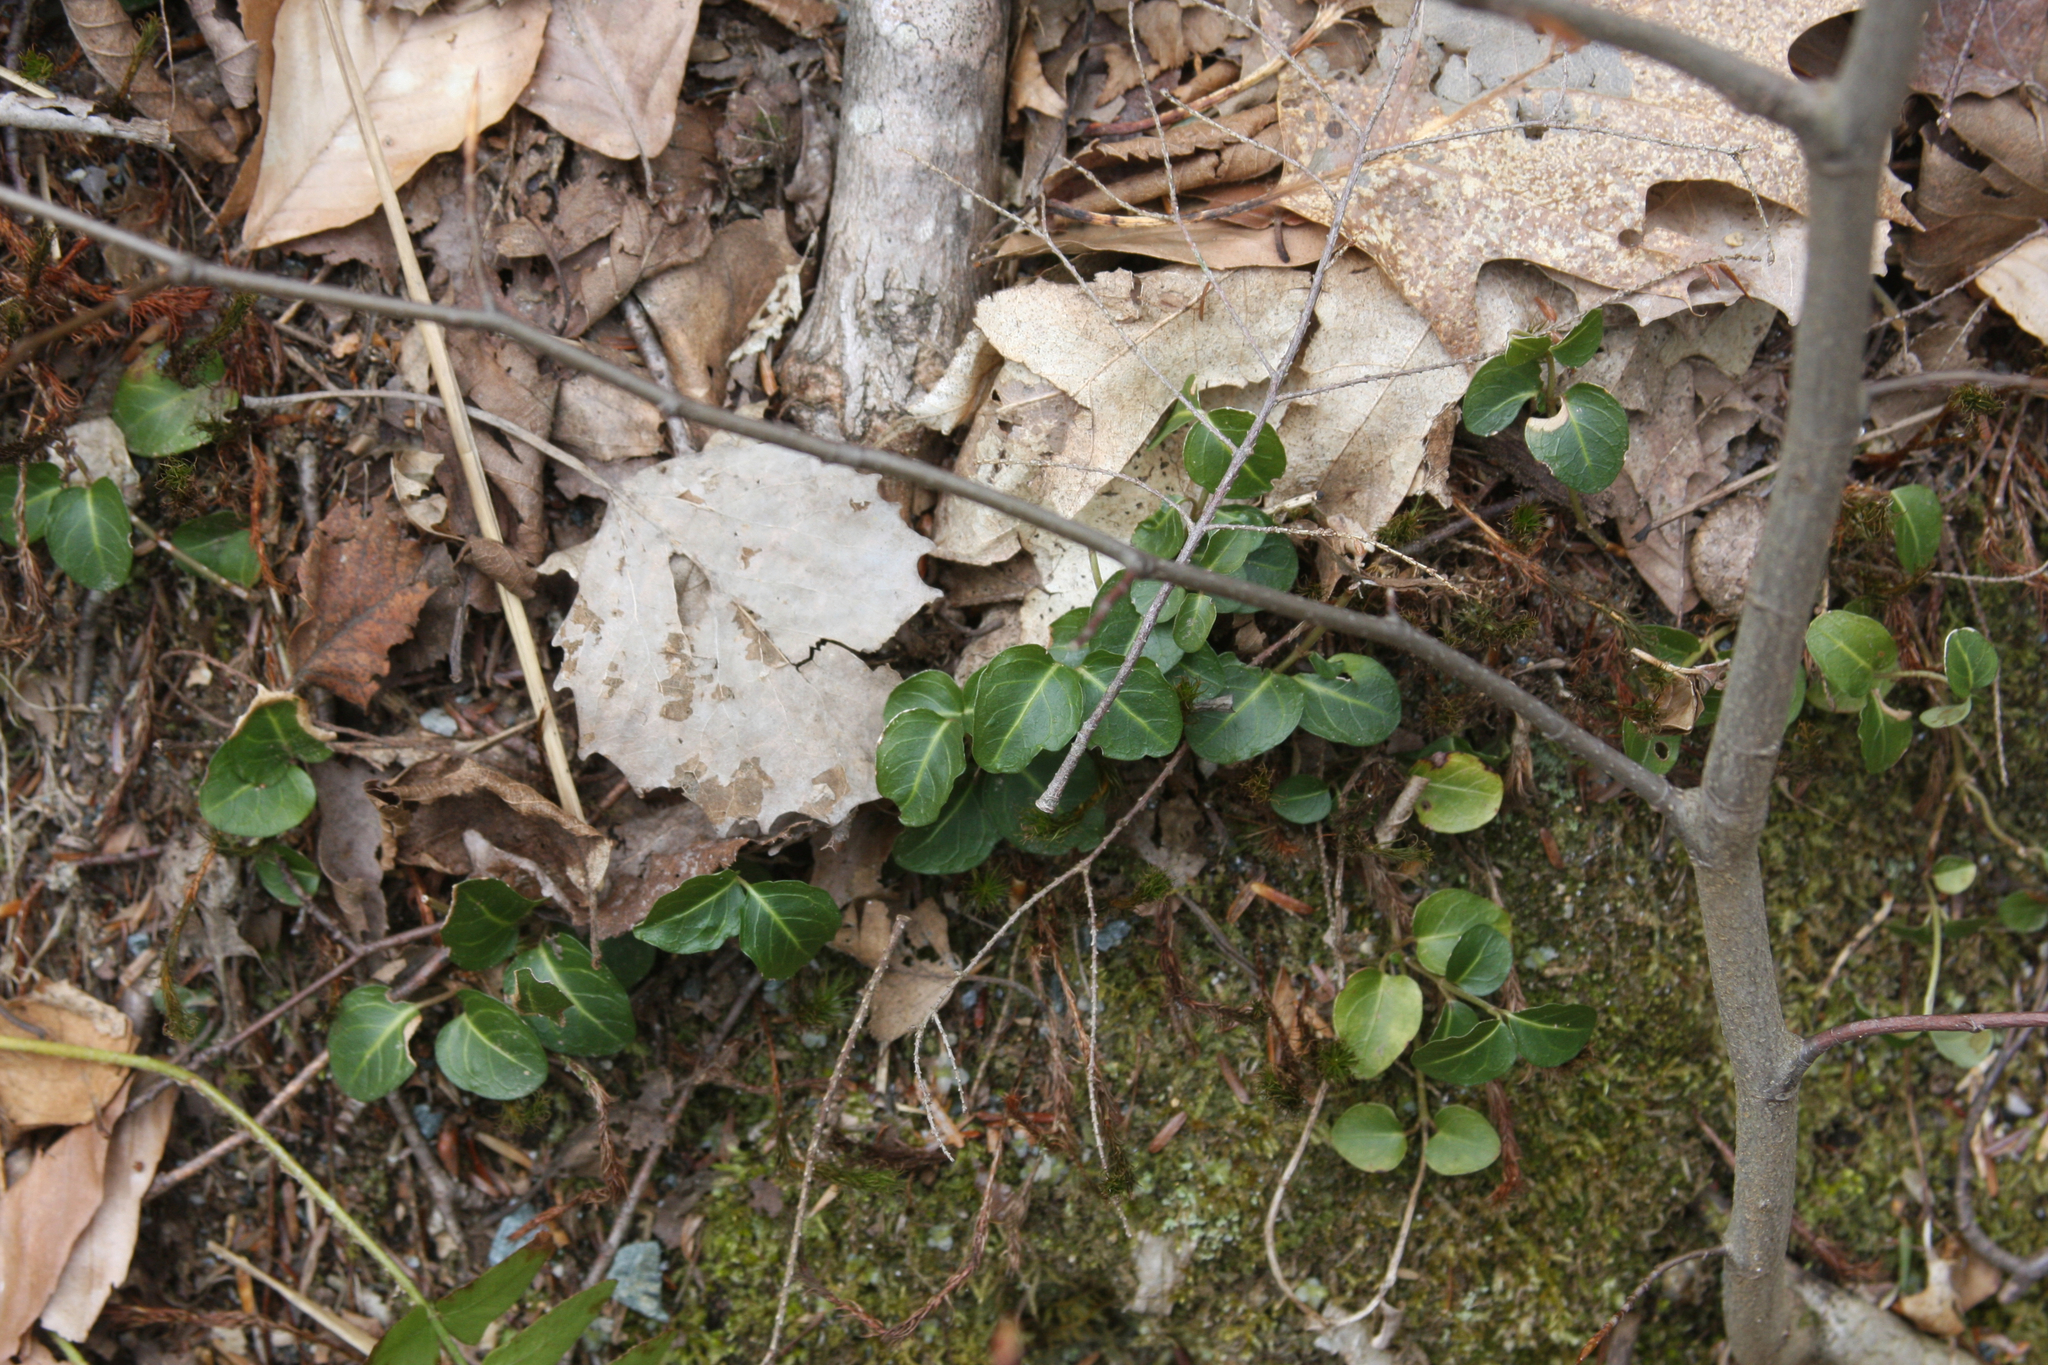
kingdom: Plantae
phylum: Tracheophyta
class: Magnoliopsida
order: Gentianales
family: Rubiaceae
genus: Mitchella
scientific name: Mitchella repens
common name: Partridge-berry
